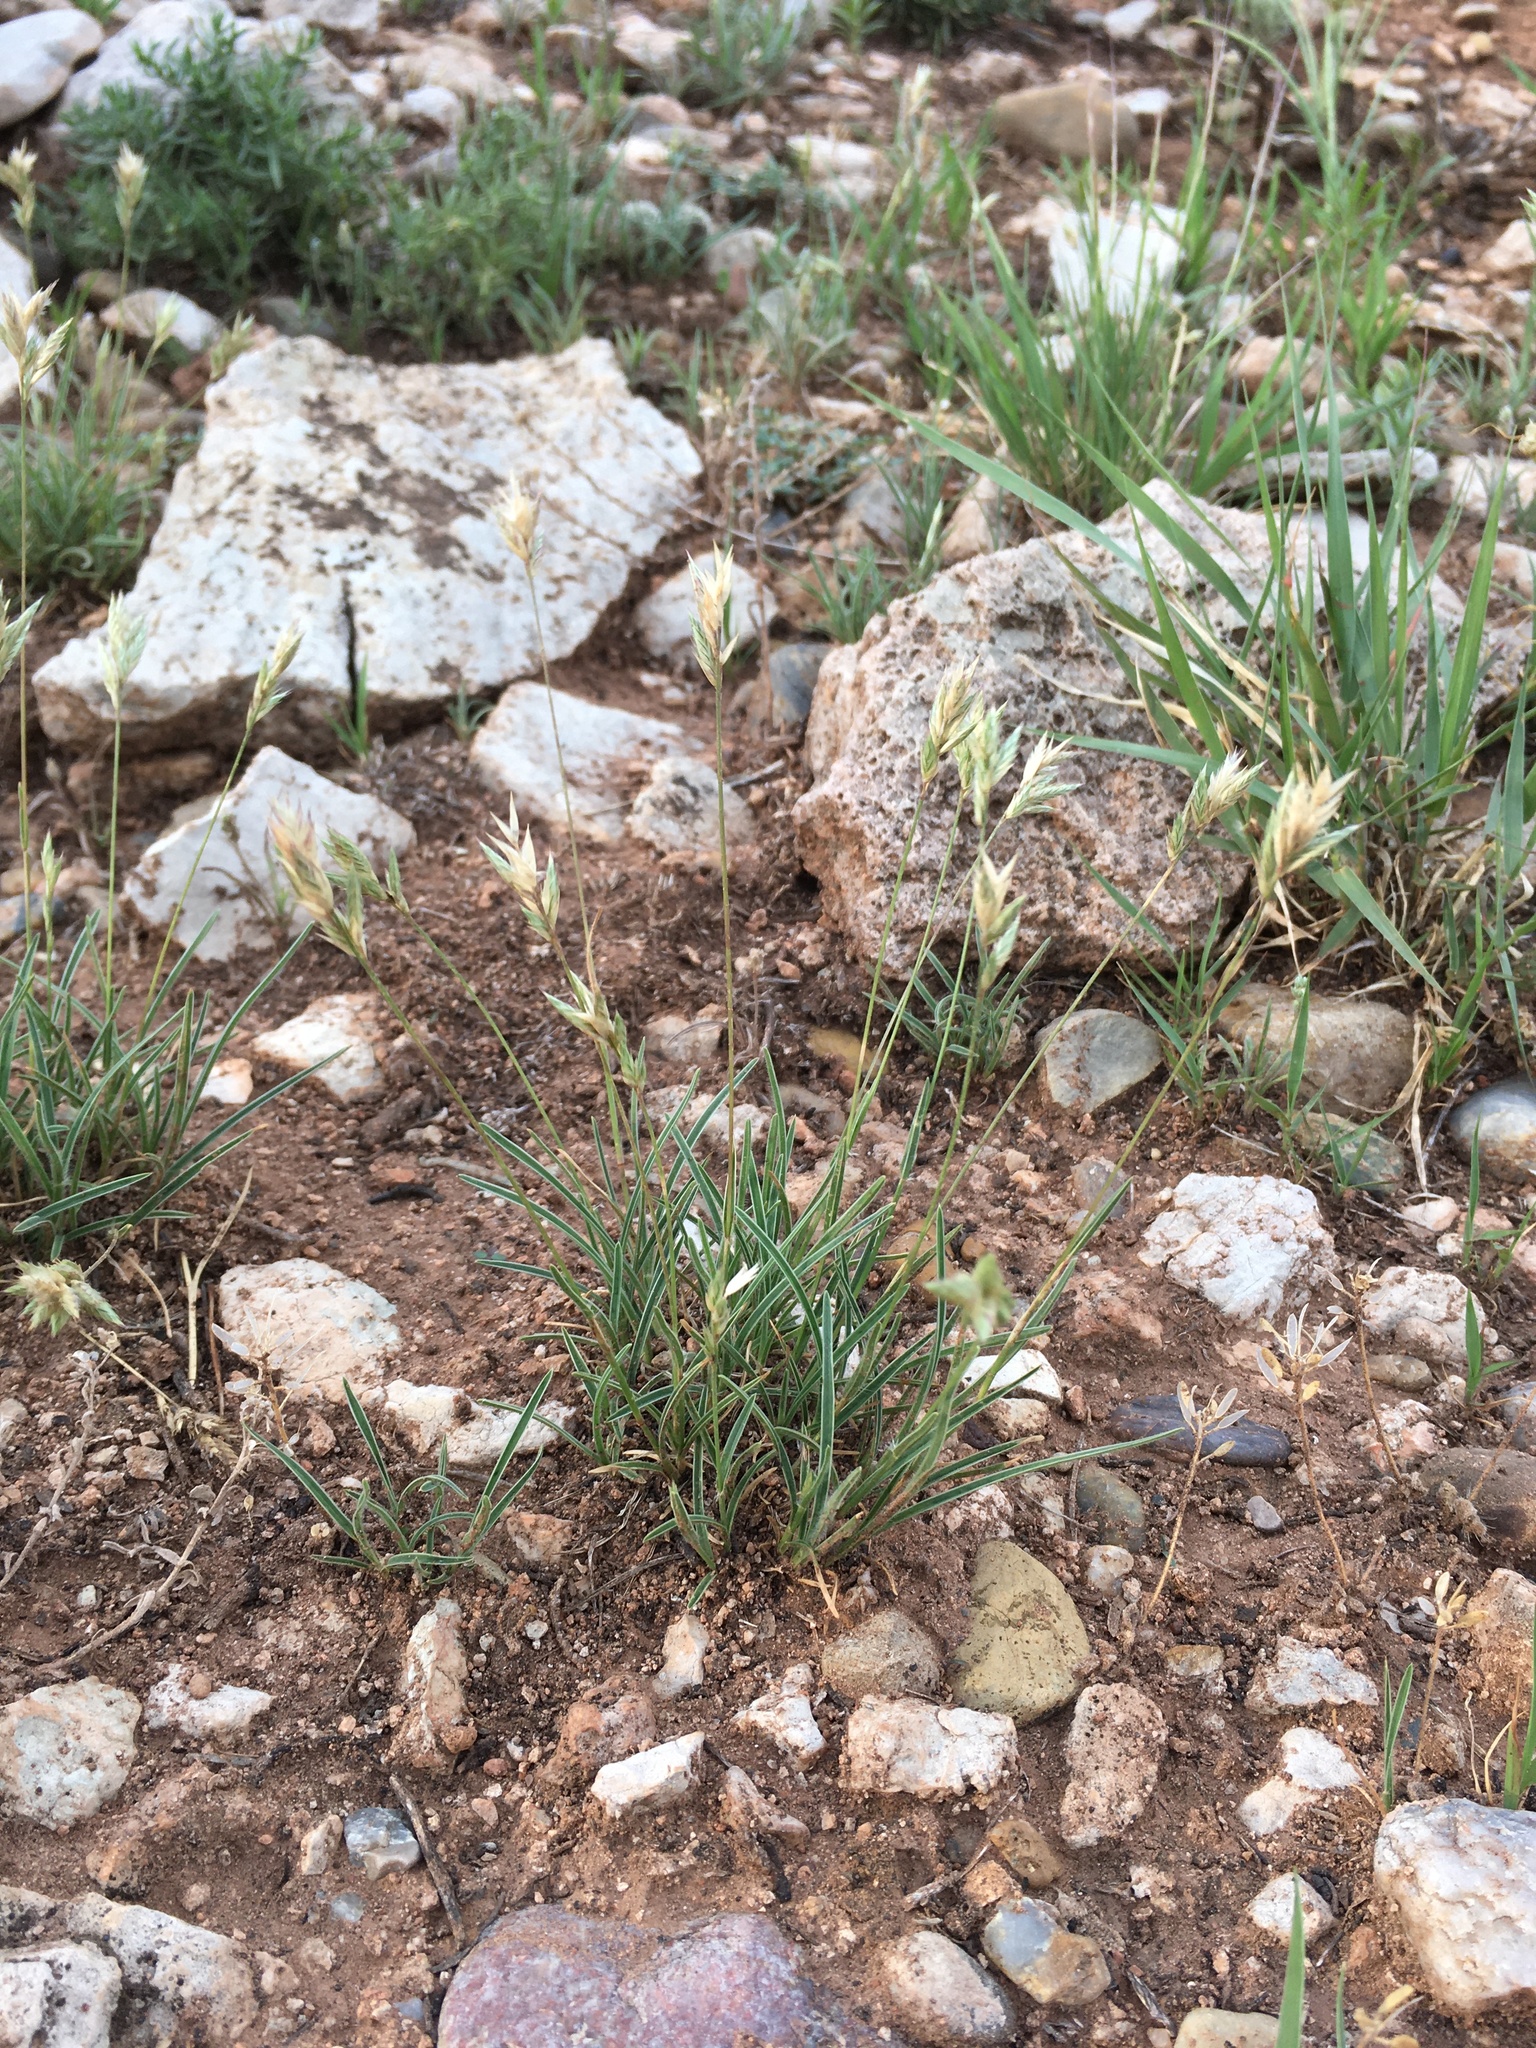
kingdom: Plantae
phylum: Tracheophyta
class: Liliopsida
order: Poales
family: Poaceae
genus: Erioneuron
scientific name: Erioneuron pilosum
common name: Hairy woolly grass
